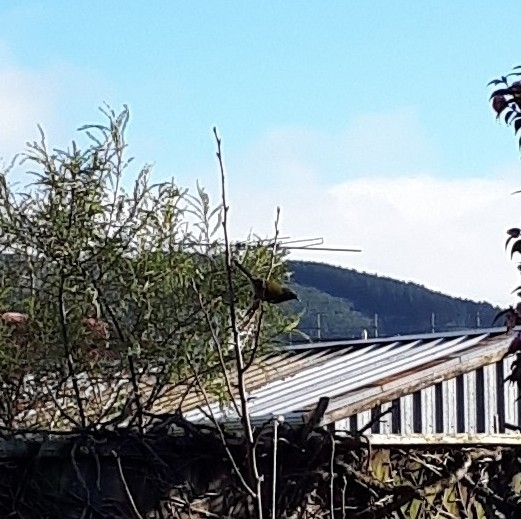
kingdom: Animalia
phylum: Chordata
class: Aves
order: Passeriformes
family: Meliphagidae
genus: Anthornis
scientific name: Anthornis melanura
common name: New zealand bellbird
